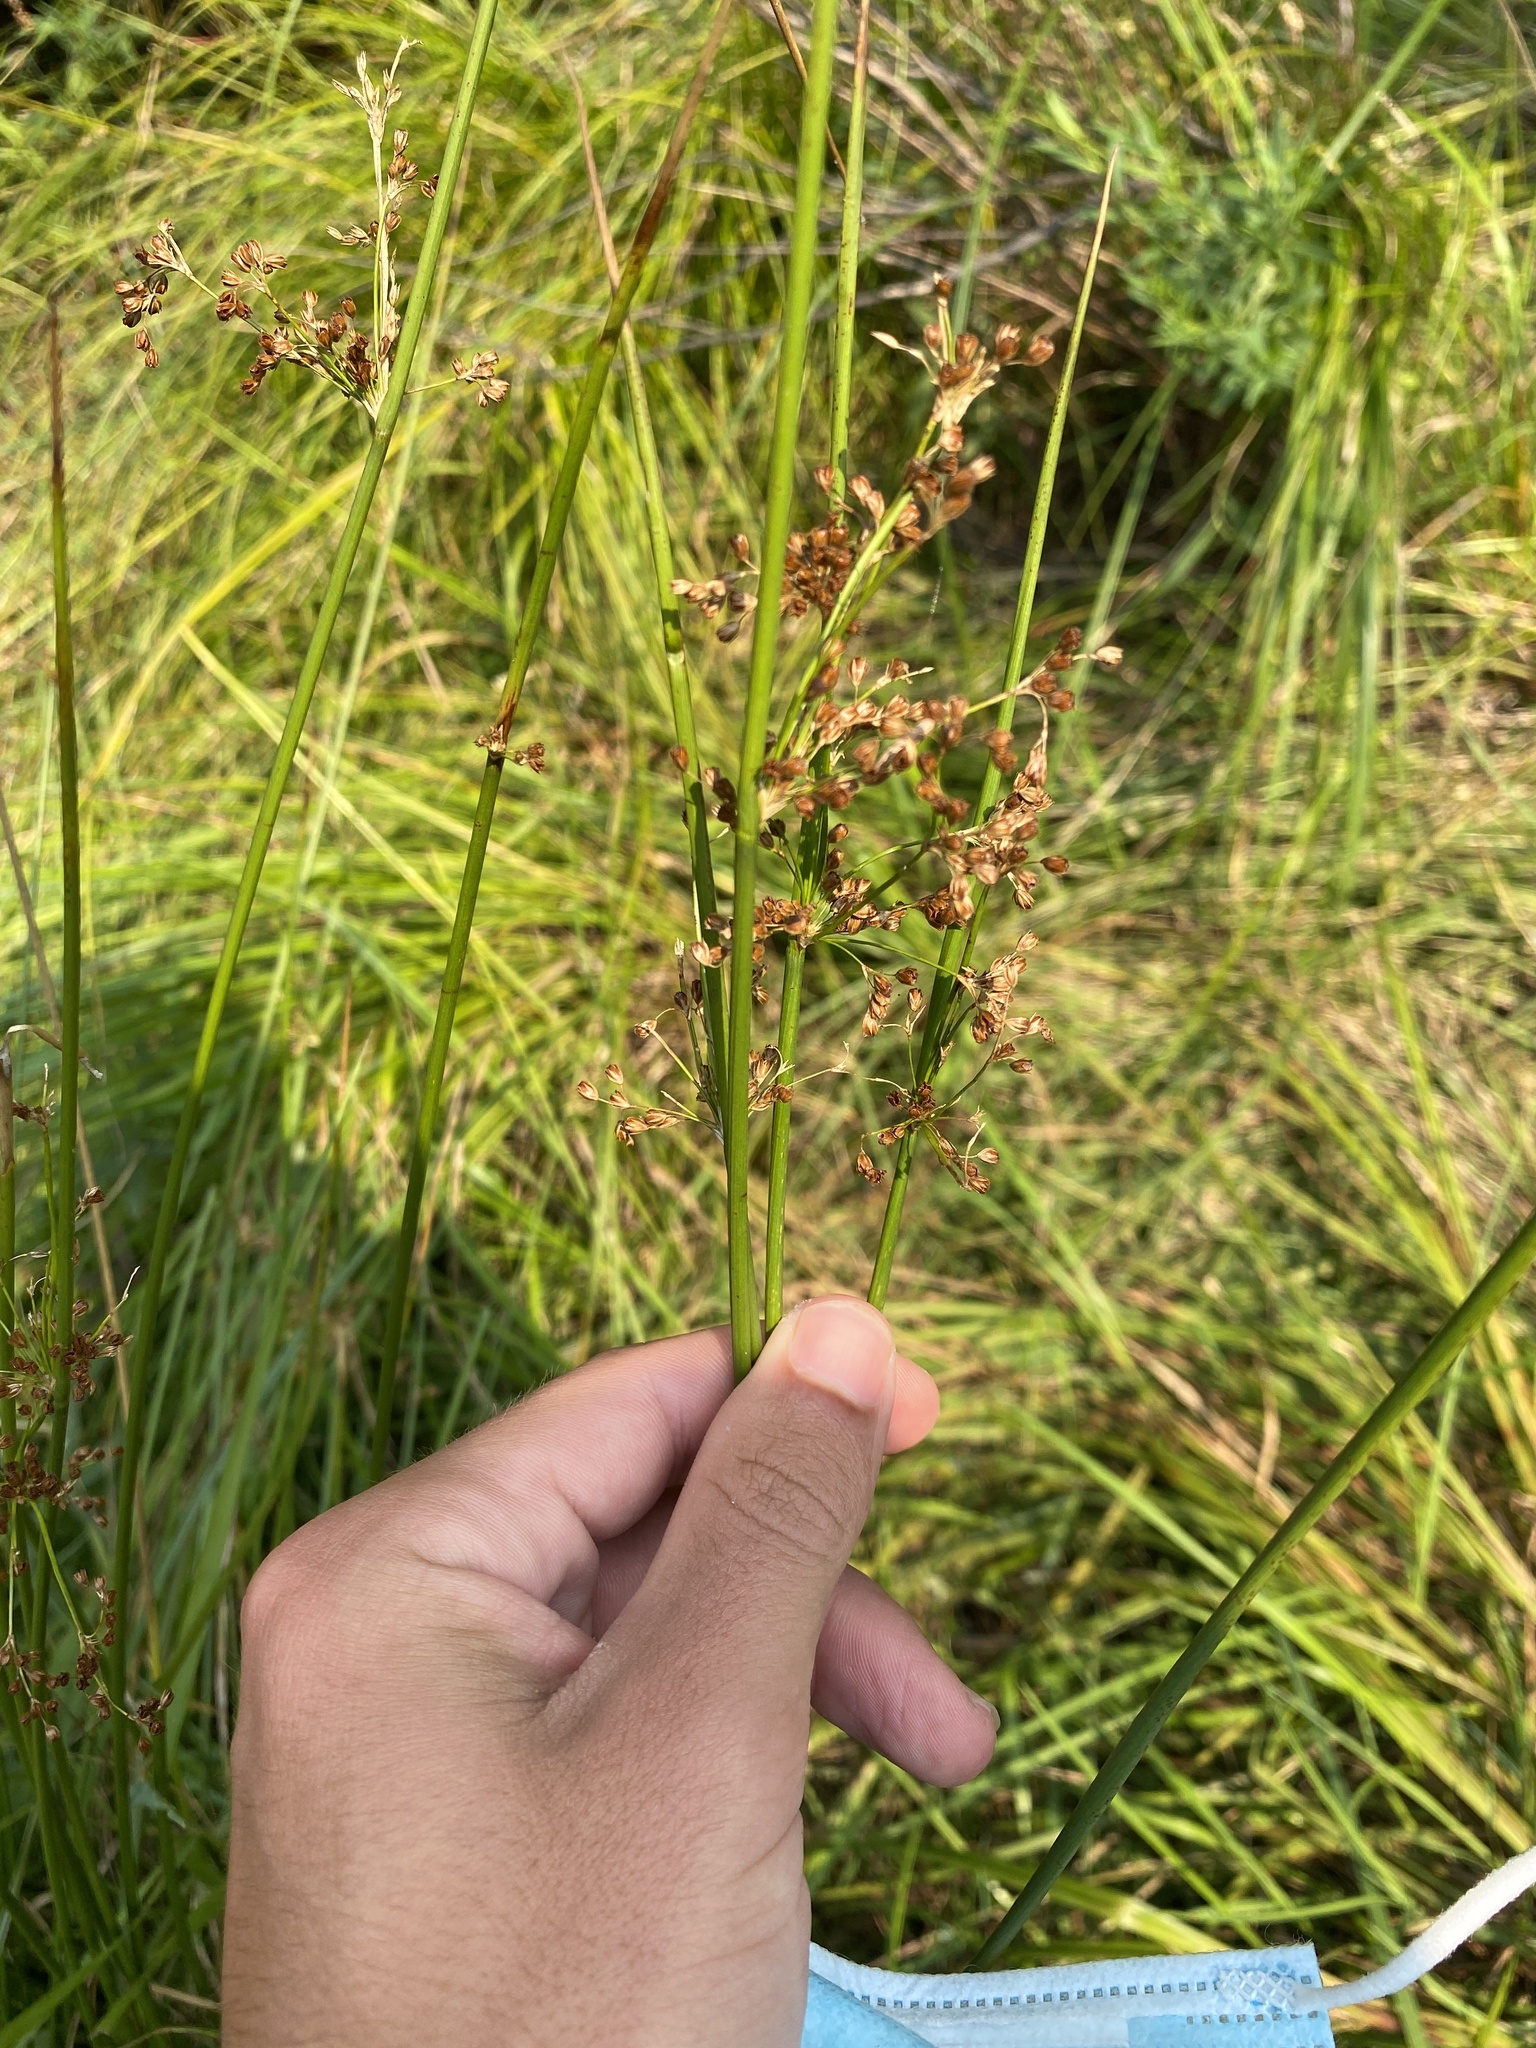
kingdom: Plantae
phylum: Tracheophyta
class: Liliopsida
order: Poales
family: Juncaceae
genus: Juncus
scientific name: Juncus effusus
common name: Soft rush
